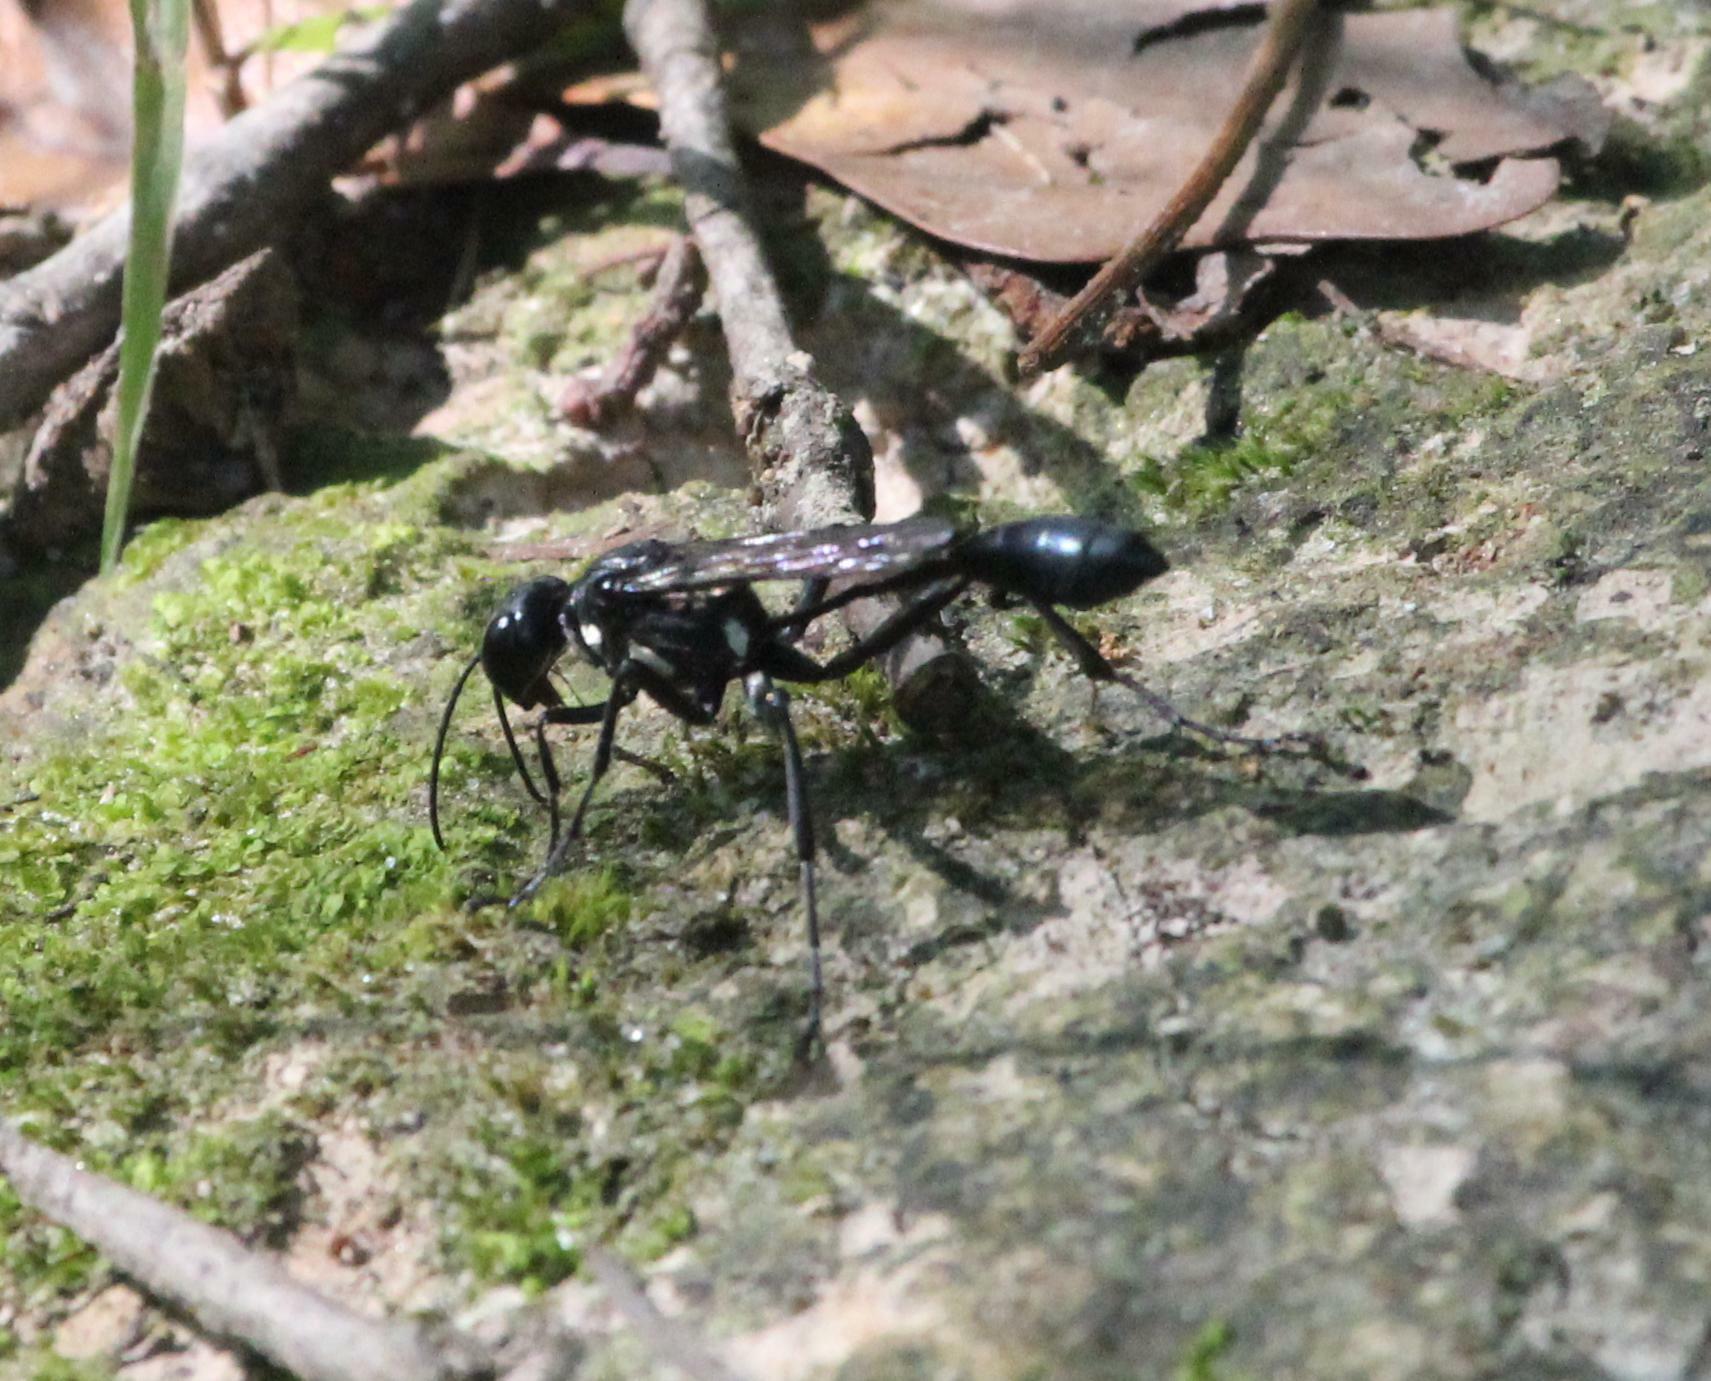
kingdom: Animalia
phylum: Arthropoda
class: Insecta
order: Hymenoptera
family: Sphecidae
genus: Eremnophila
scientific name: Eremnophila aureonotata
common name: Gold-marked thread-waisted wasp
